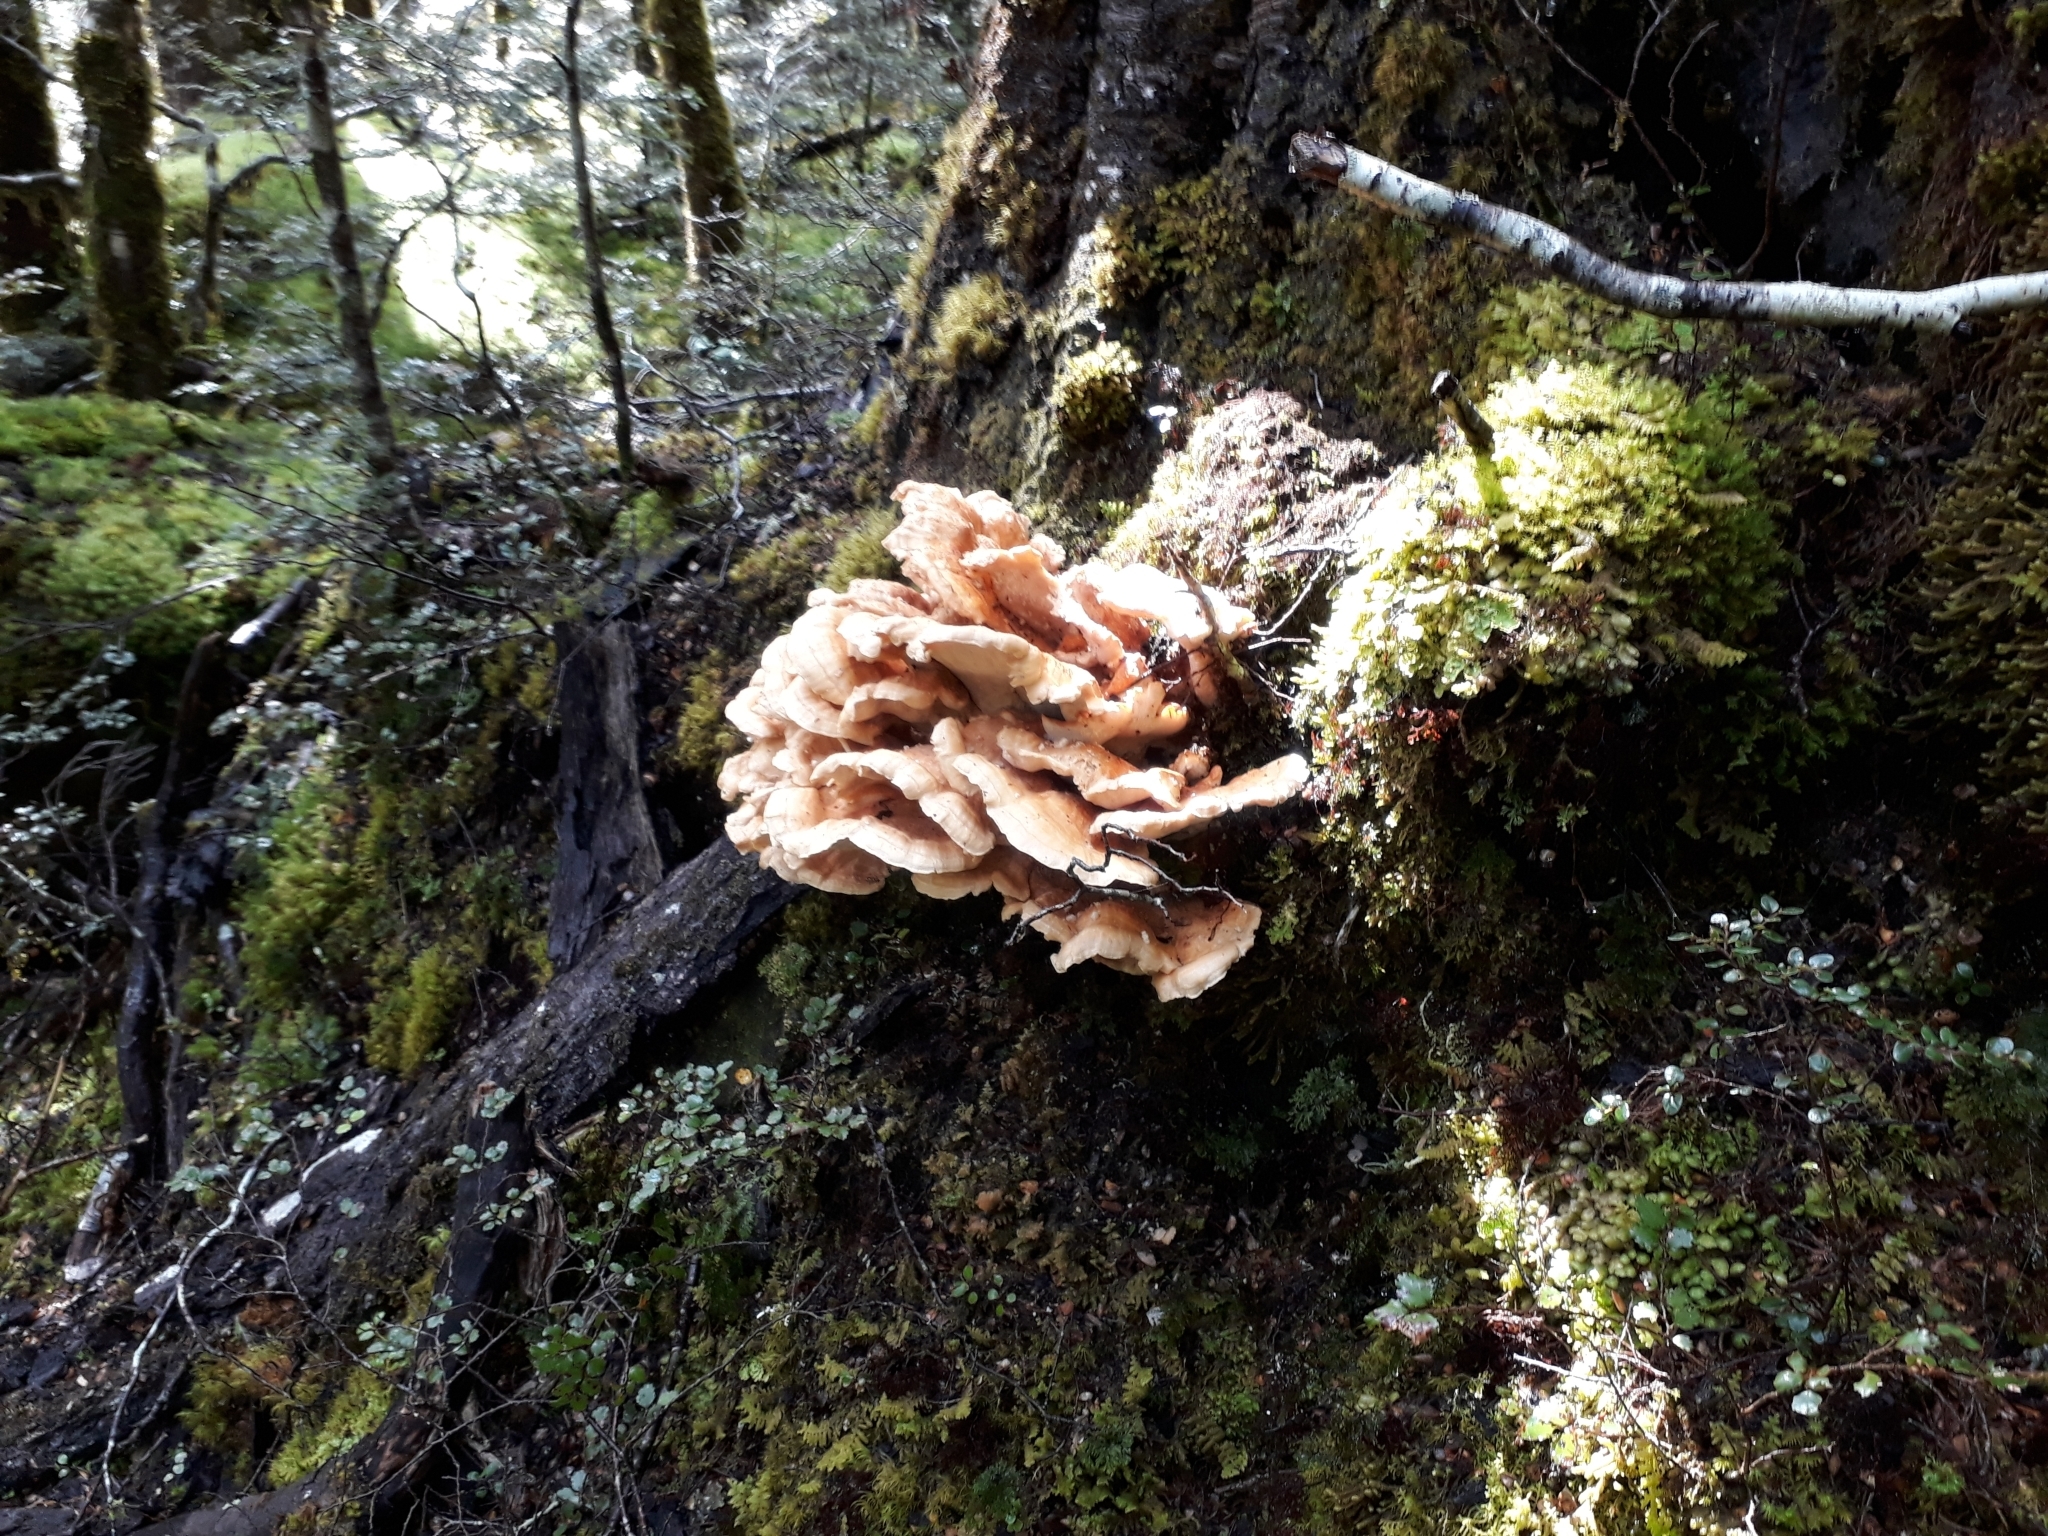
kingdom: Fungi
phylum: Basidiomycota
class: Agaricomycetes
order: Russulales
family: Bondarzewiaceae
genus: Bondarzewia
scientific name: Bondarzewia kirkii
